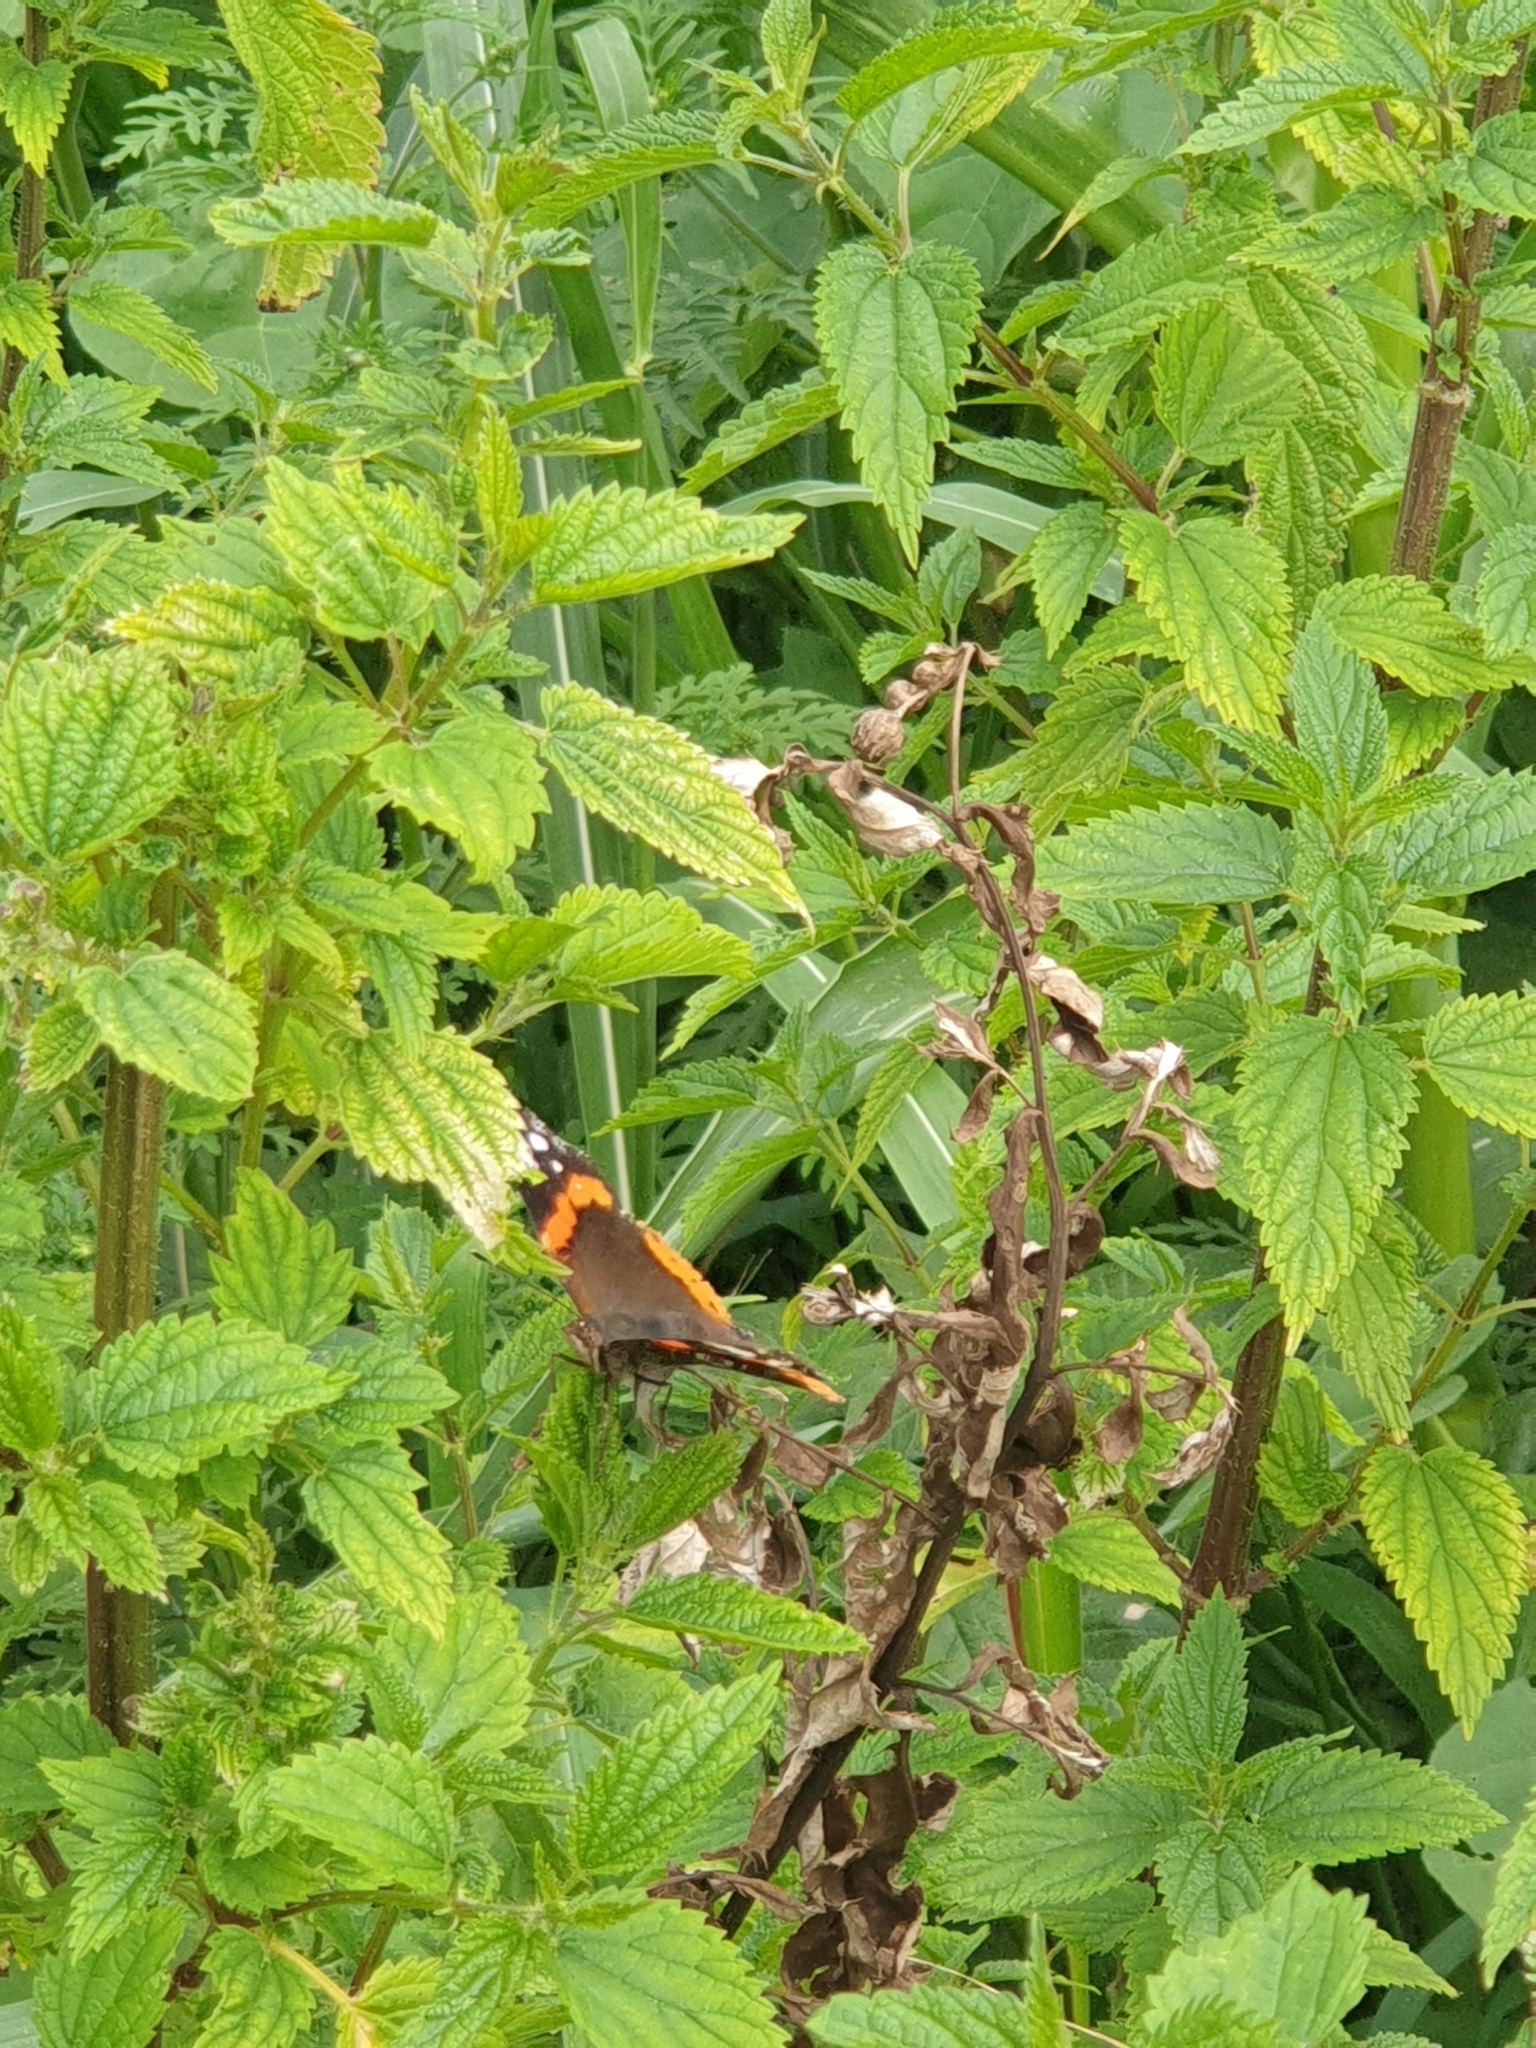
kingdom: Animalia
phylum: Arthropoda
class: Insecta
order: Lepidoptera
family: Nymphalidae
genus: Vanessa
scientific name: Vanessa atalanta
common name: Red admiral
